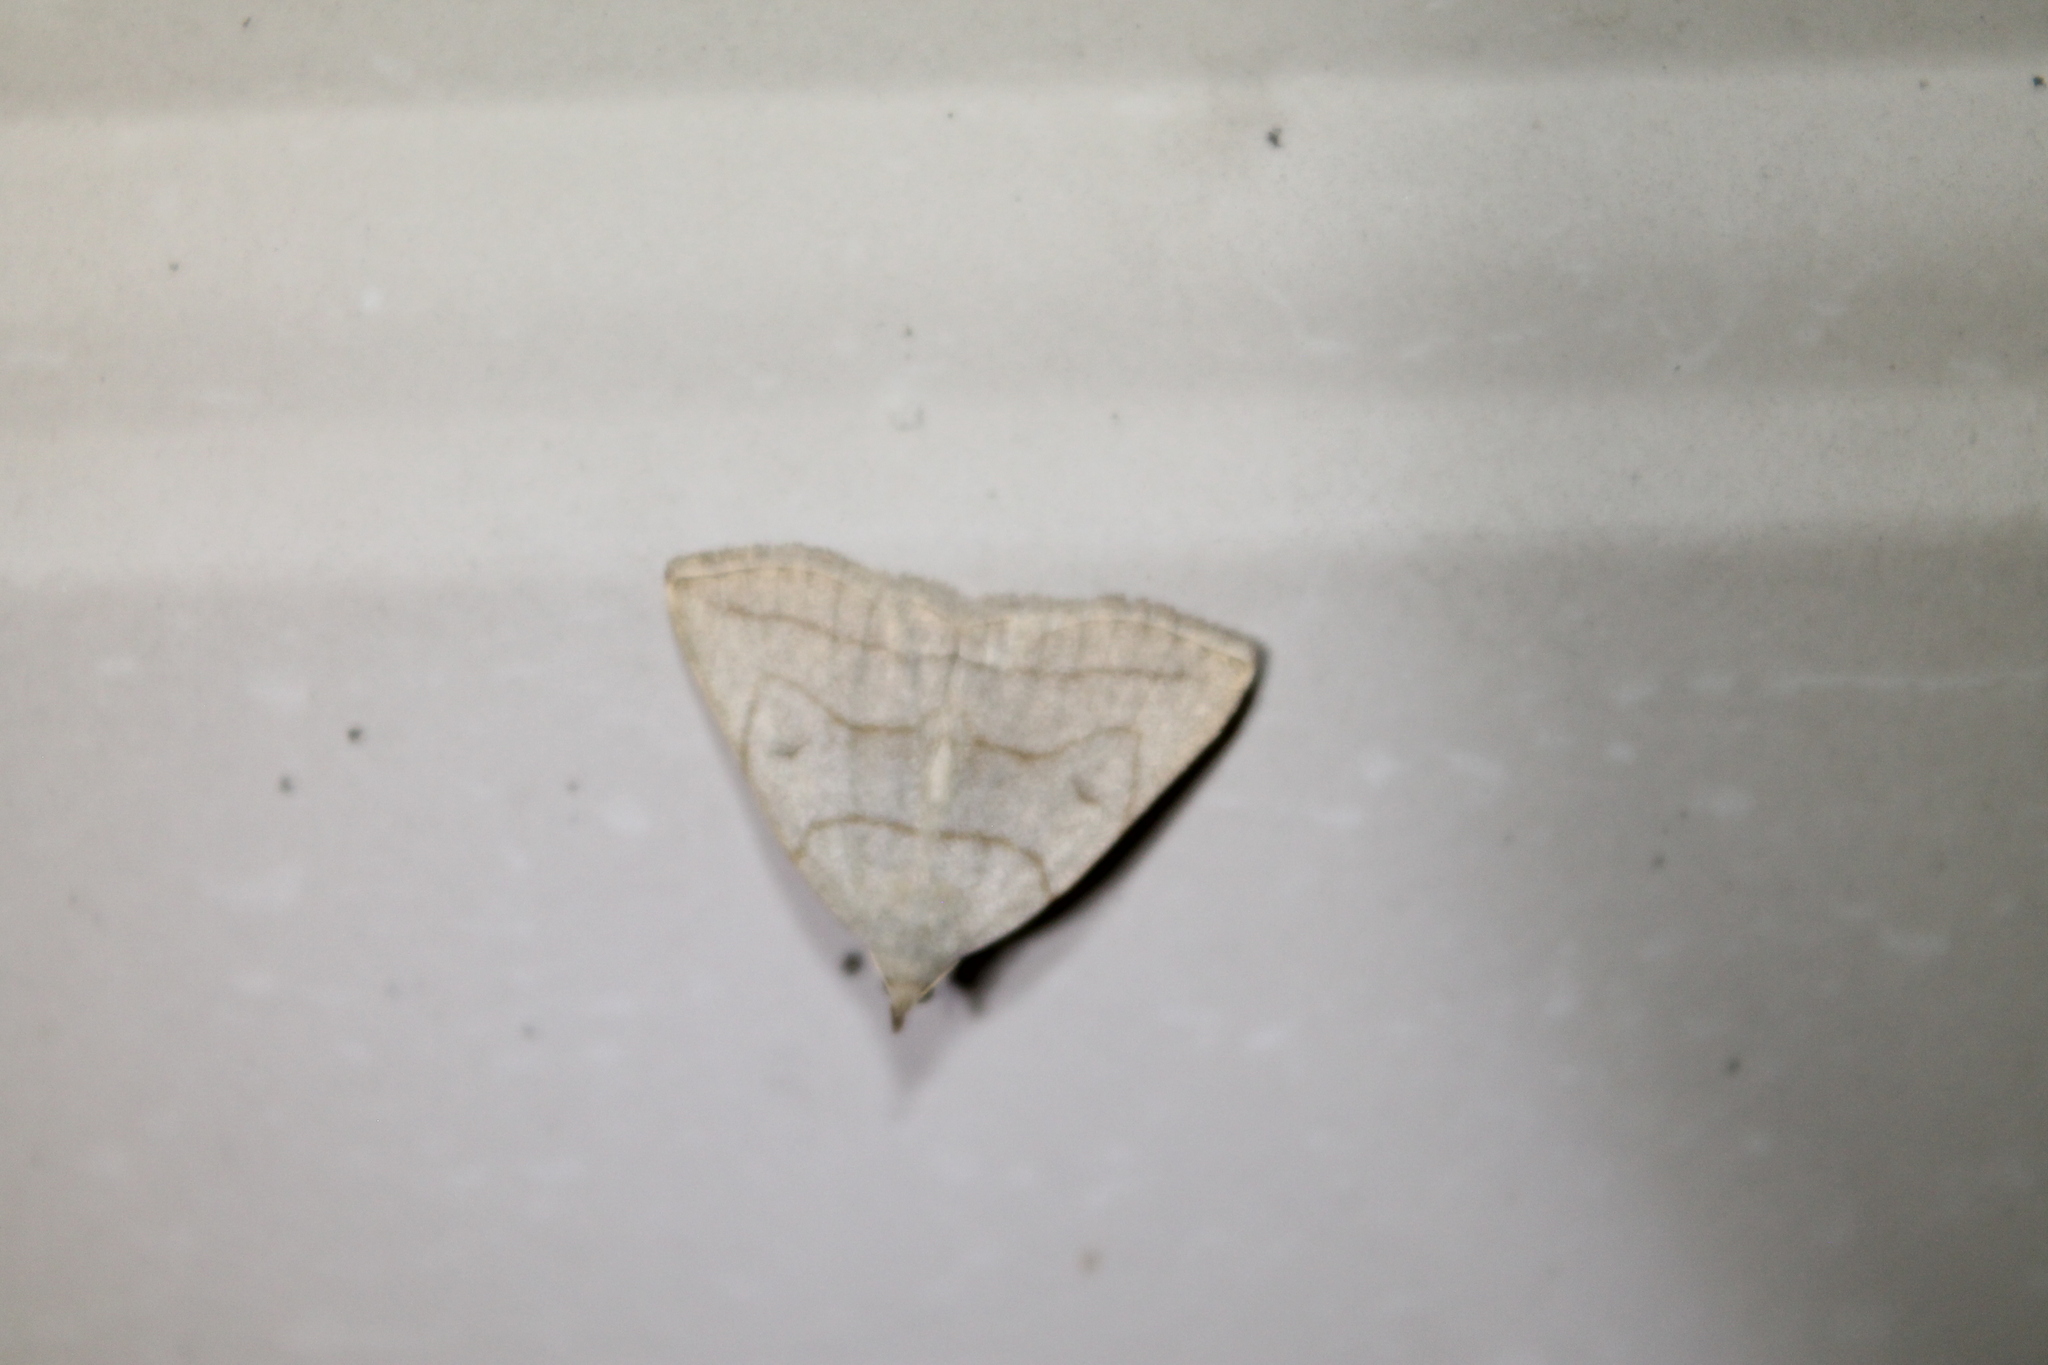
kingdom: Animalia
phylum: Arthropoda
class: Insecta
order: Lepidoptera
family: Erebidae
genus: Zanclognatha
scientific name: Zanclognatha pedipilalis
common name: Grayish fan-foot
